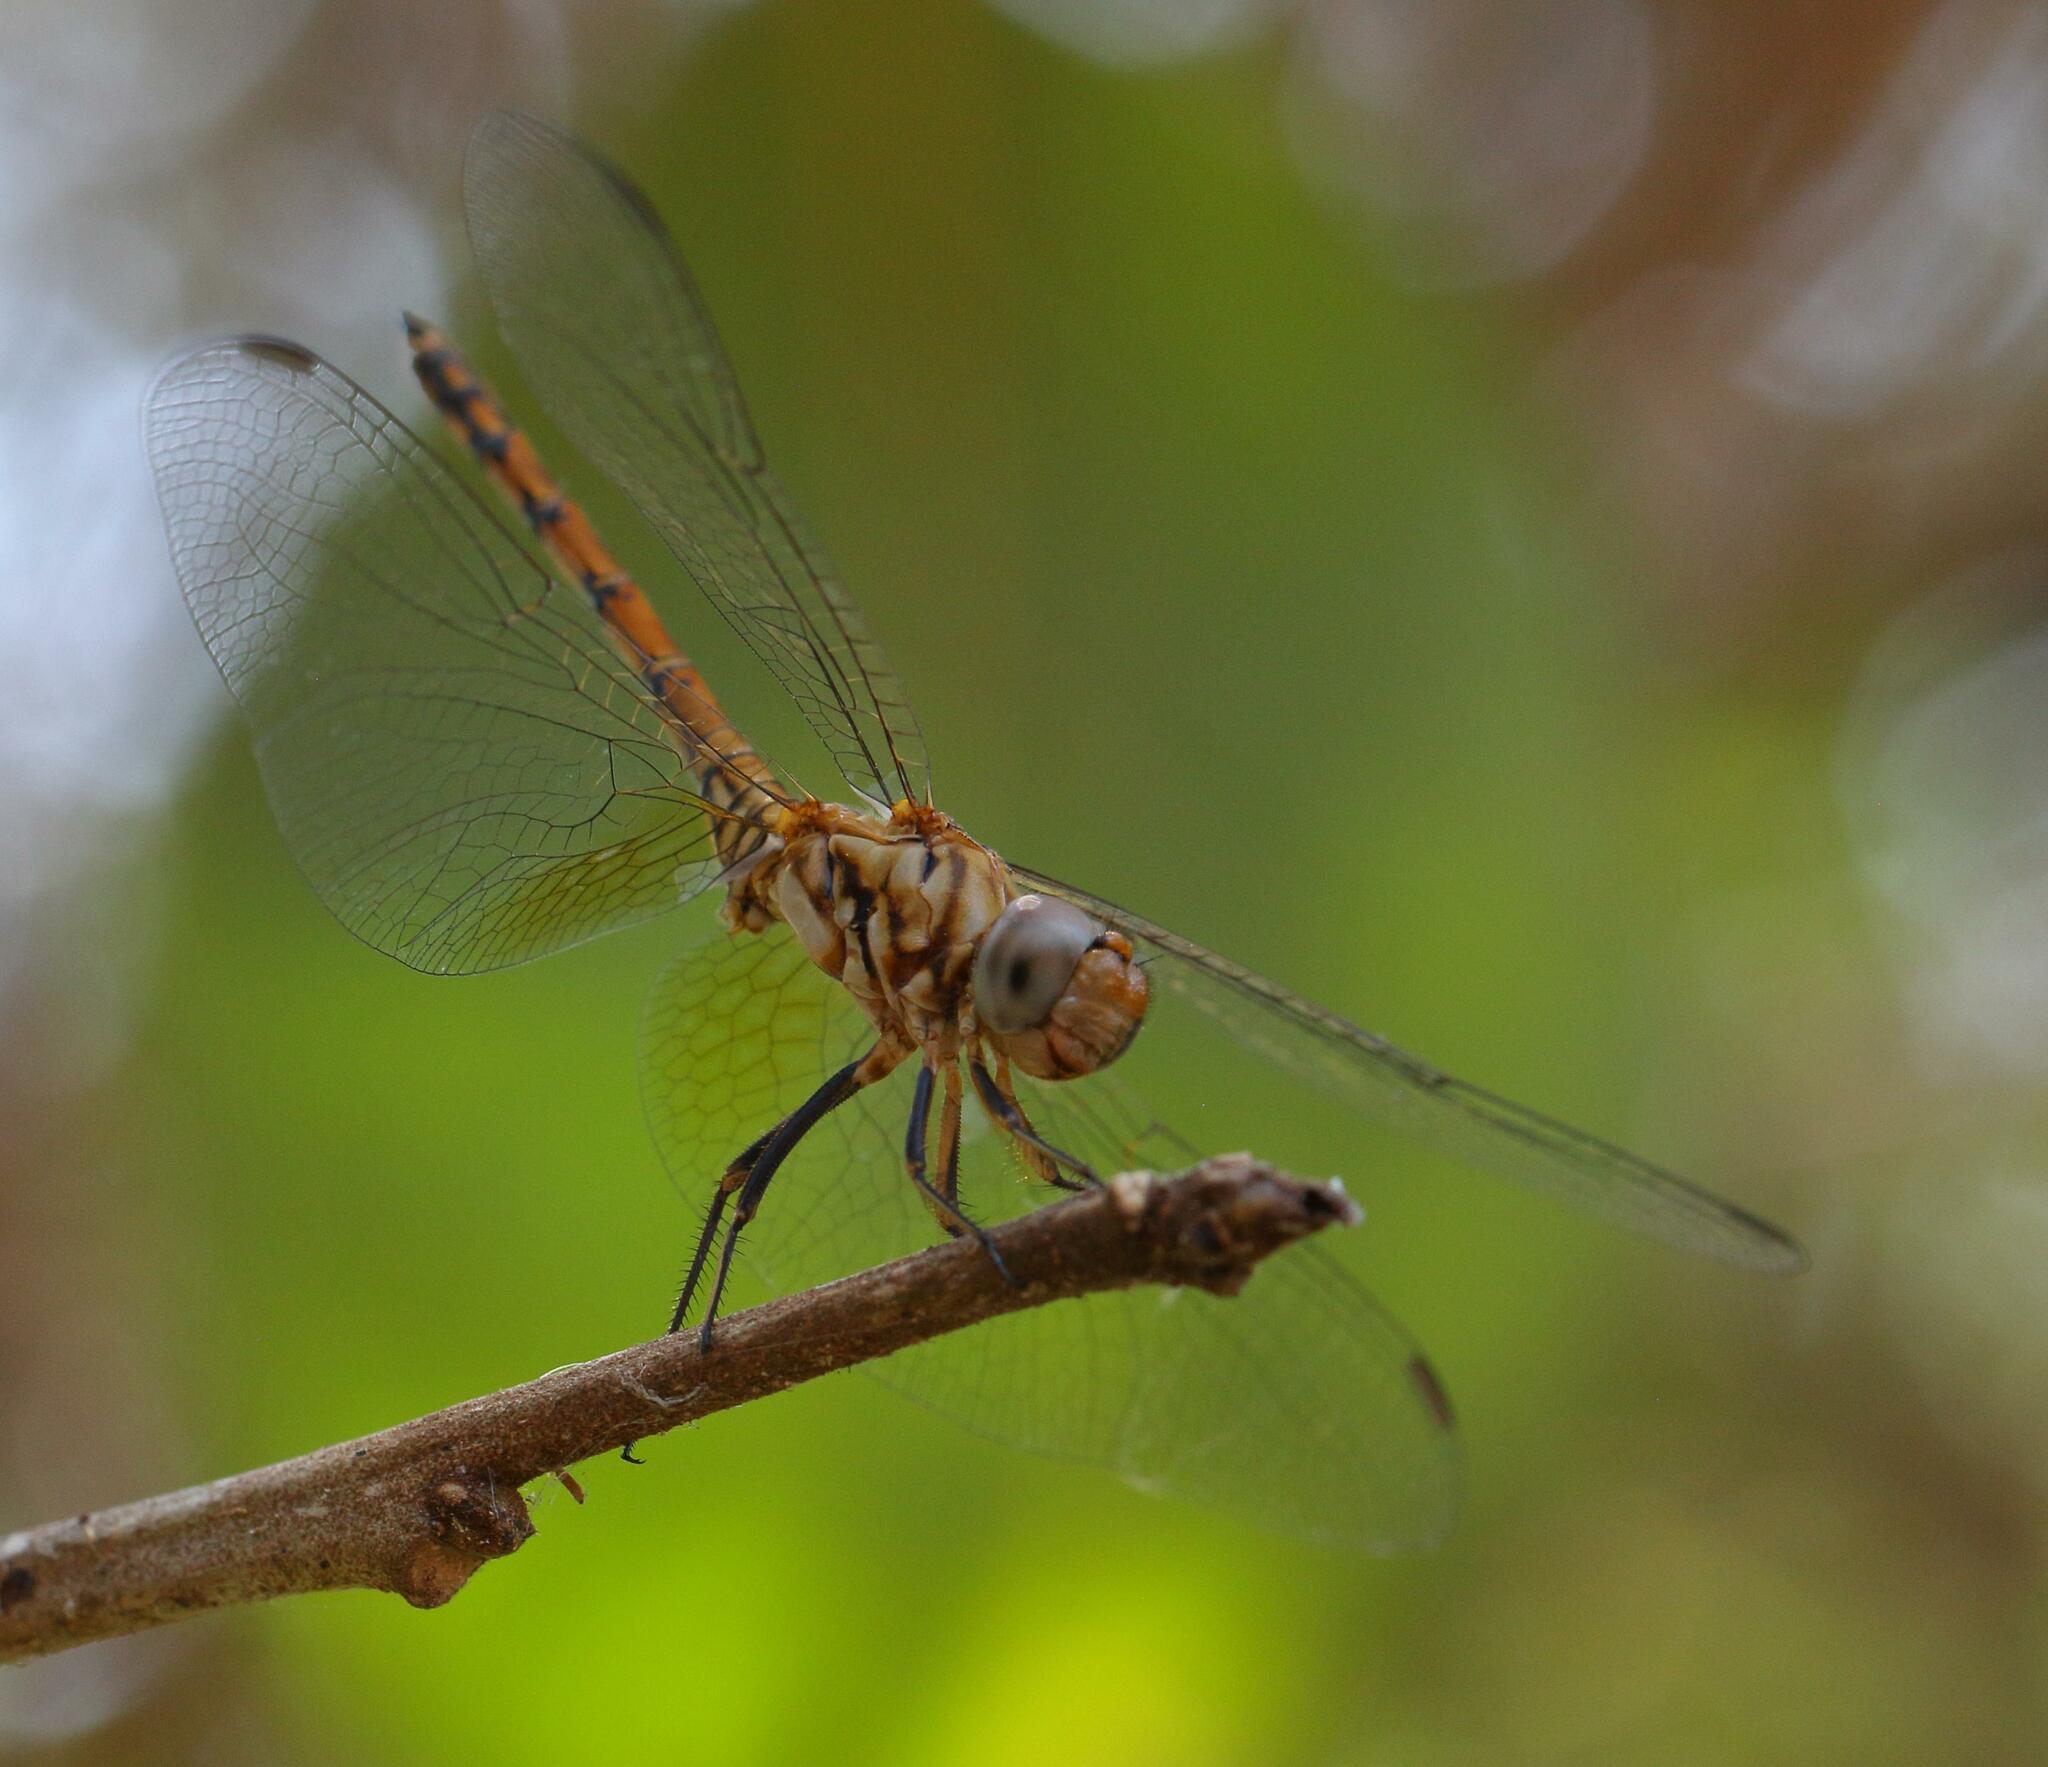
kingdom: Animalia
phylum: Arthropoda
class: Insecta
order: Odonata
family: Libellulidae
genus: Trithemis
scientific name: Trithemis werneri
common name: Elegant dropwing
